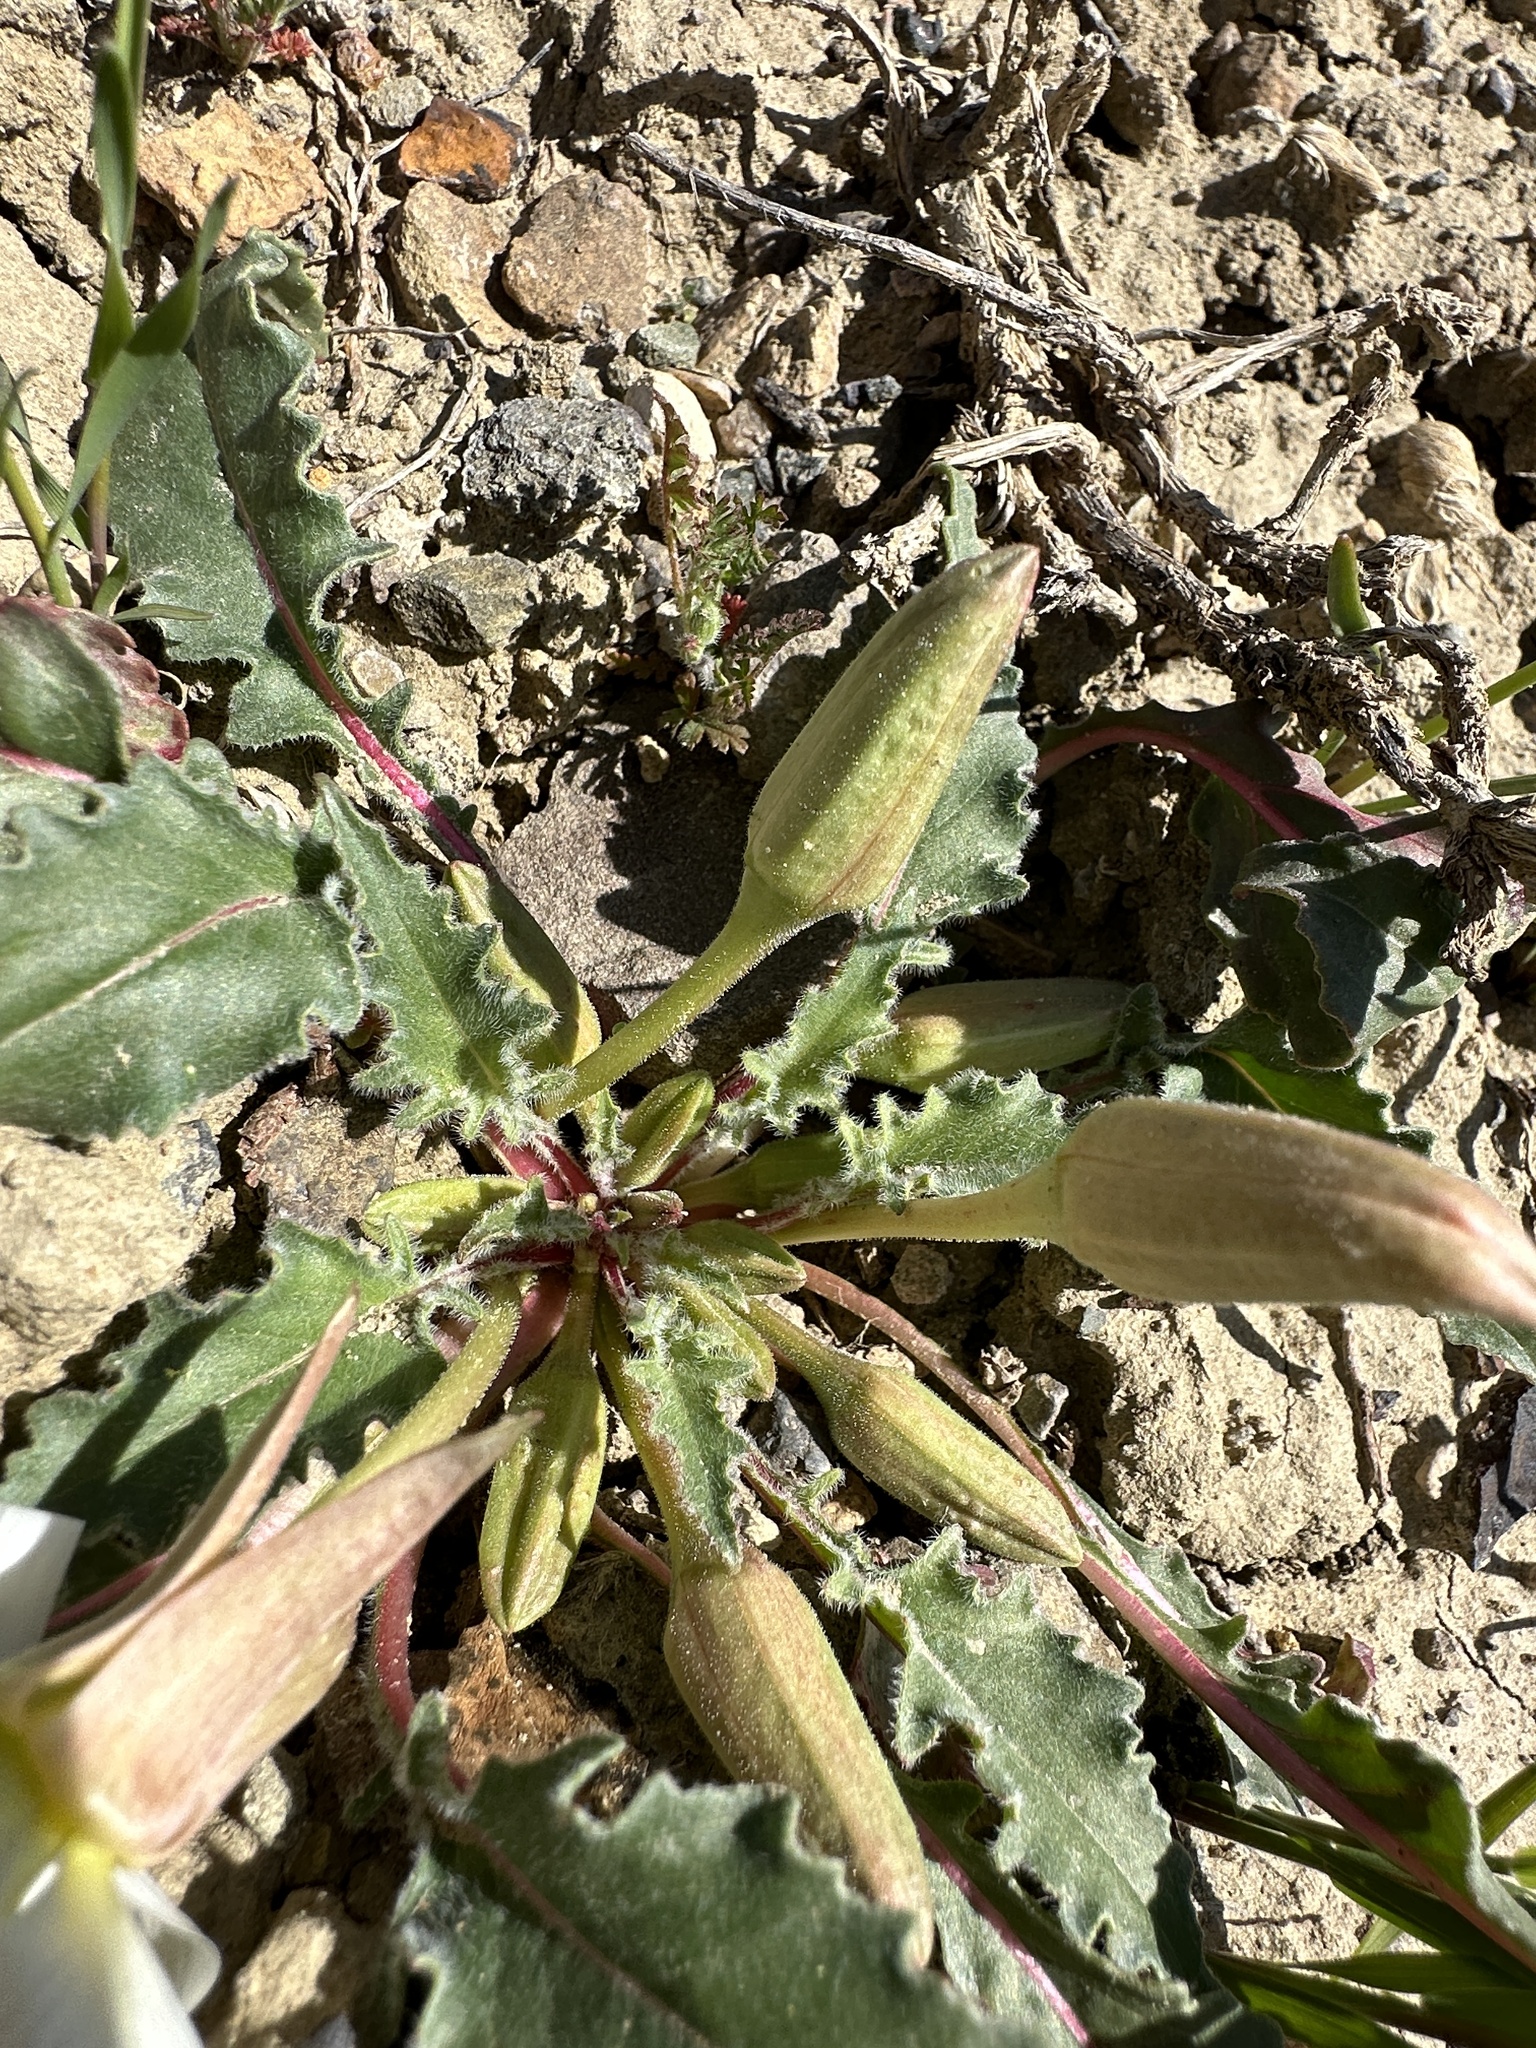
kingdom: Plantae
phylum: Tracheophyta
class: Magnoliopsida
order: Myrtales
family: Onagraceae
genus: Oenothera
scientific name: Oenothera cespitosa
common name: Tufted evening-primrose
